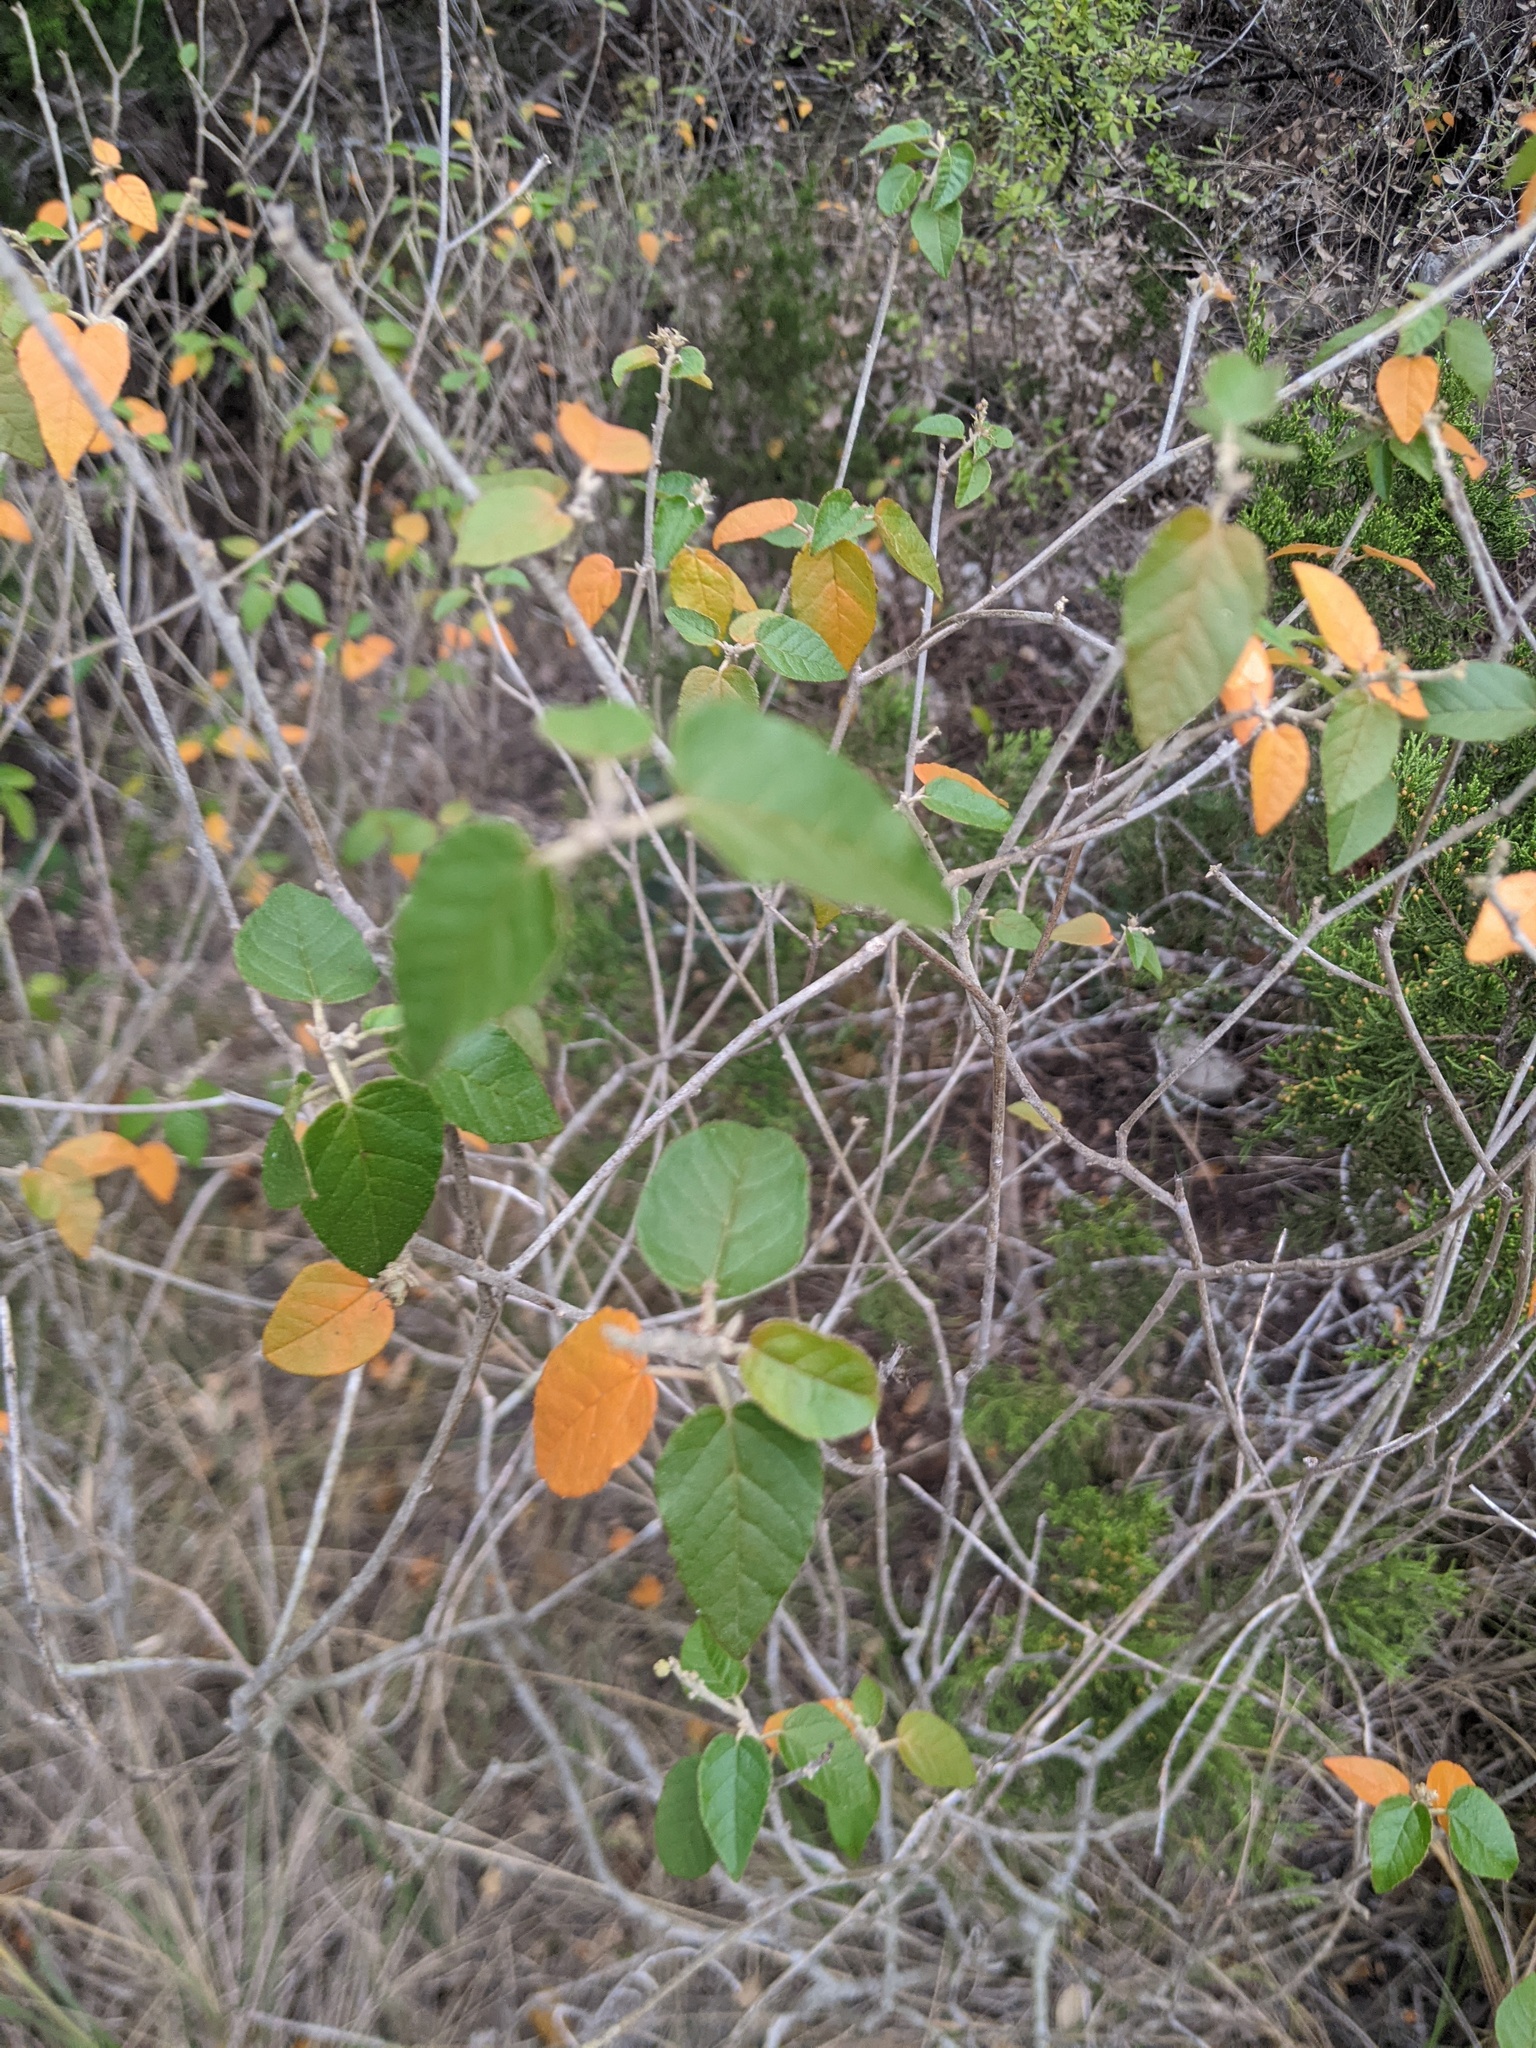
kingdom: Plantae
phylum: Tracheophyta
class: Magnoliopsida
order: Malpighiales
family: Euphorbiaceae
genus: Croton
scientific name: Croton fruticulosus
